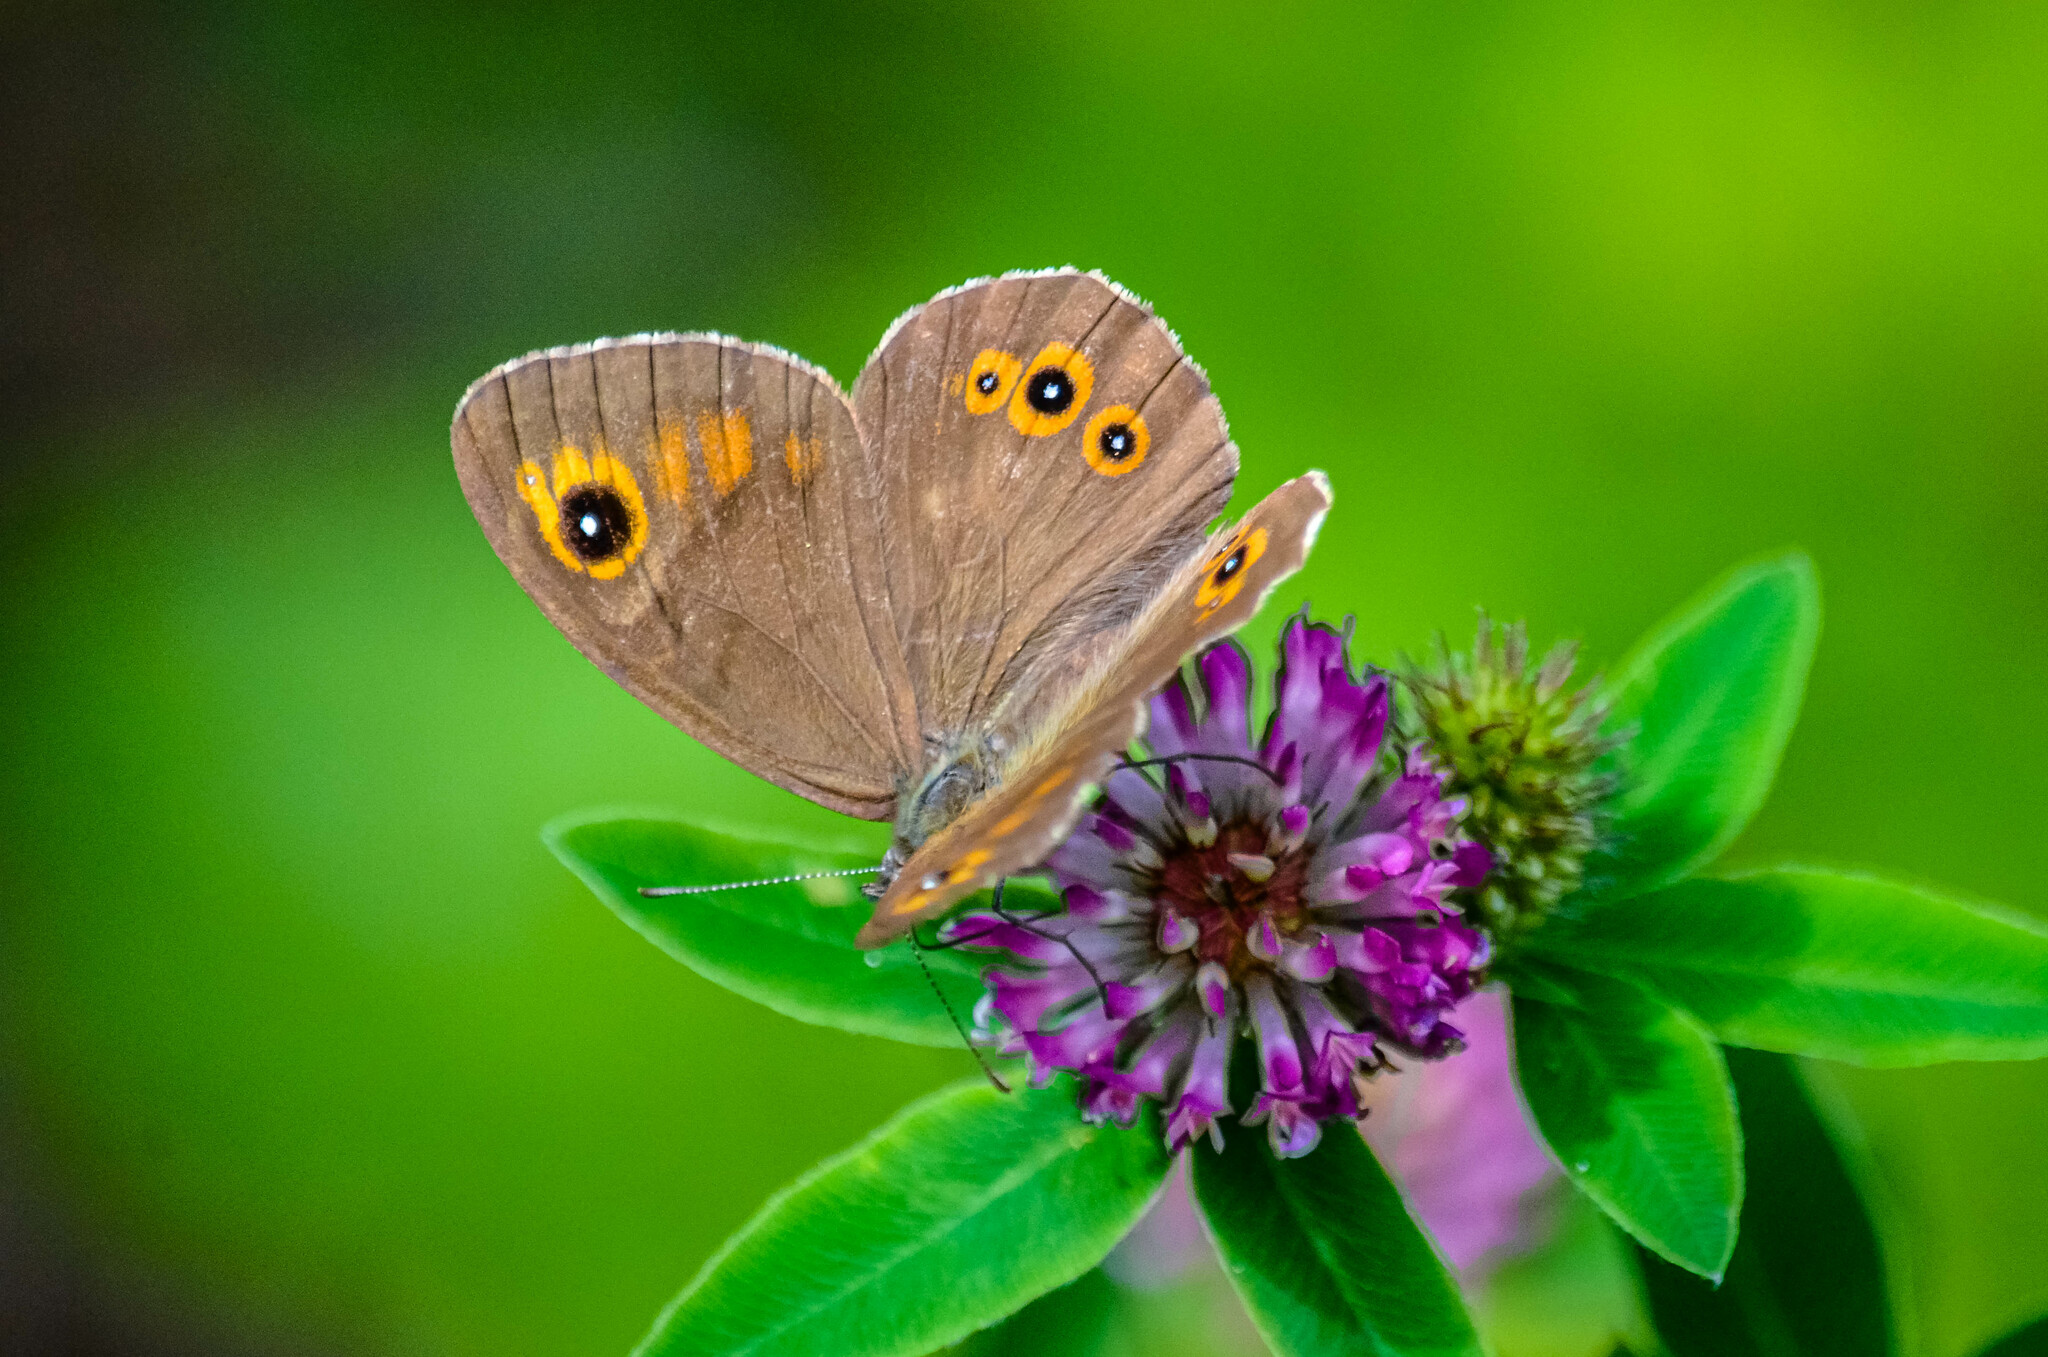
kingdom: Animalia
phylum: Arthropoda
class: Insecta
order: Lepidoptera
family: Nymphalidae
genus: Pararge
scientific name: Pararge Lasiommata maera
